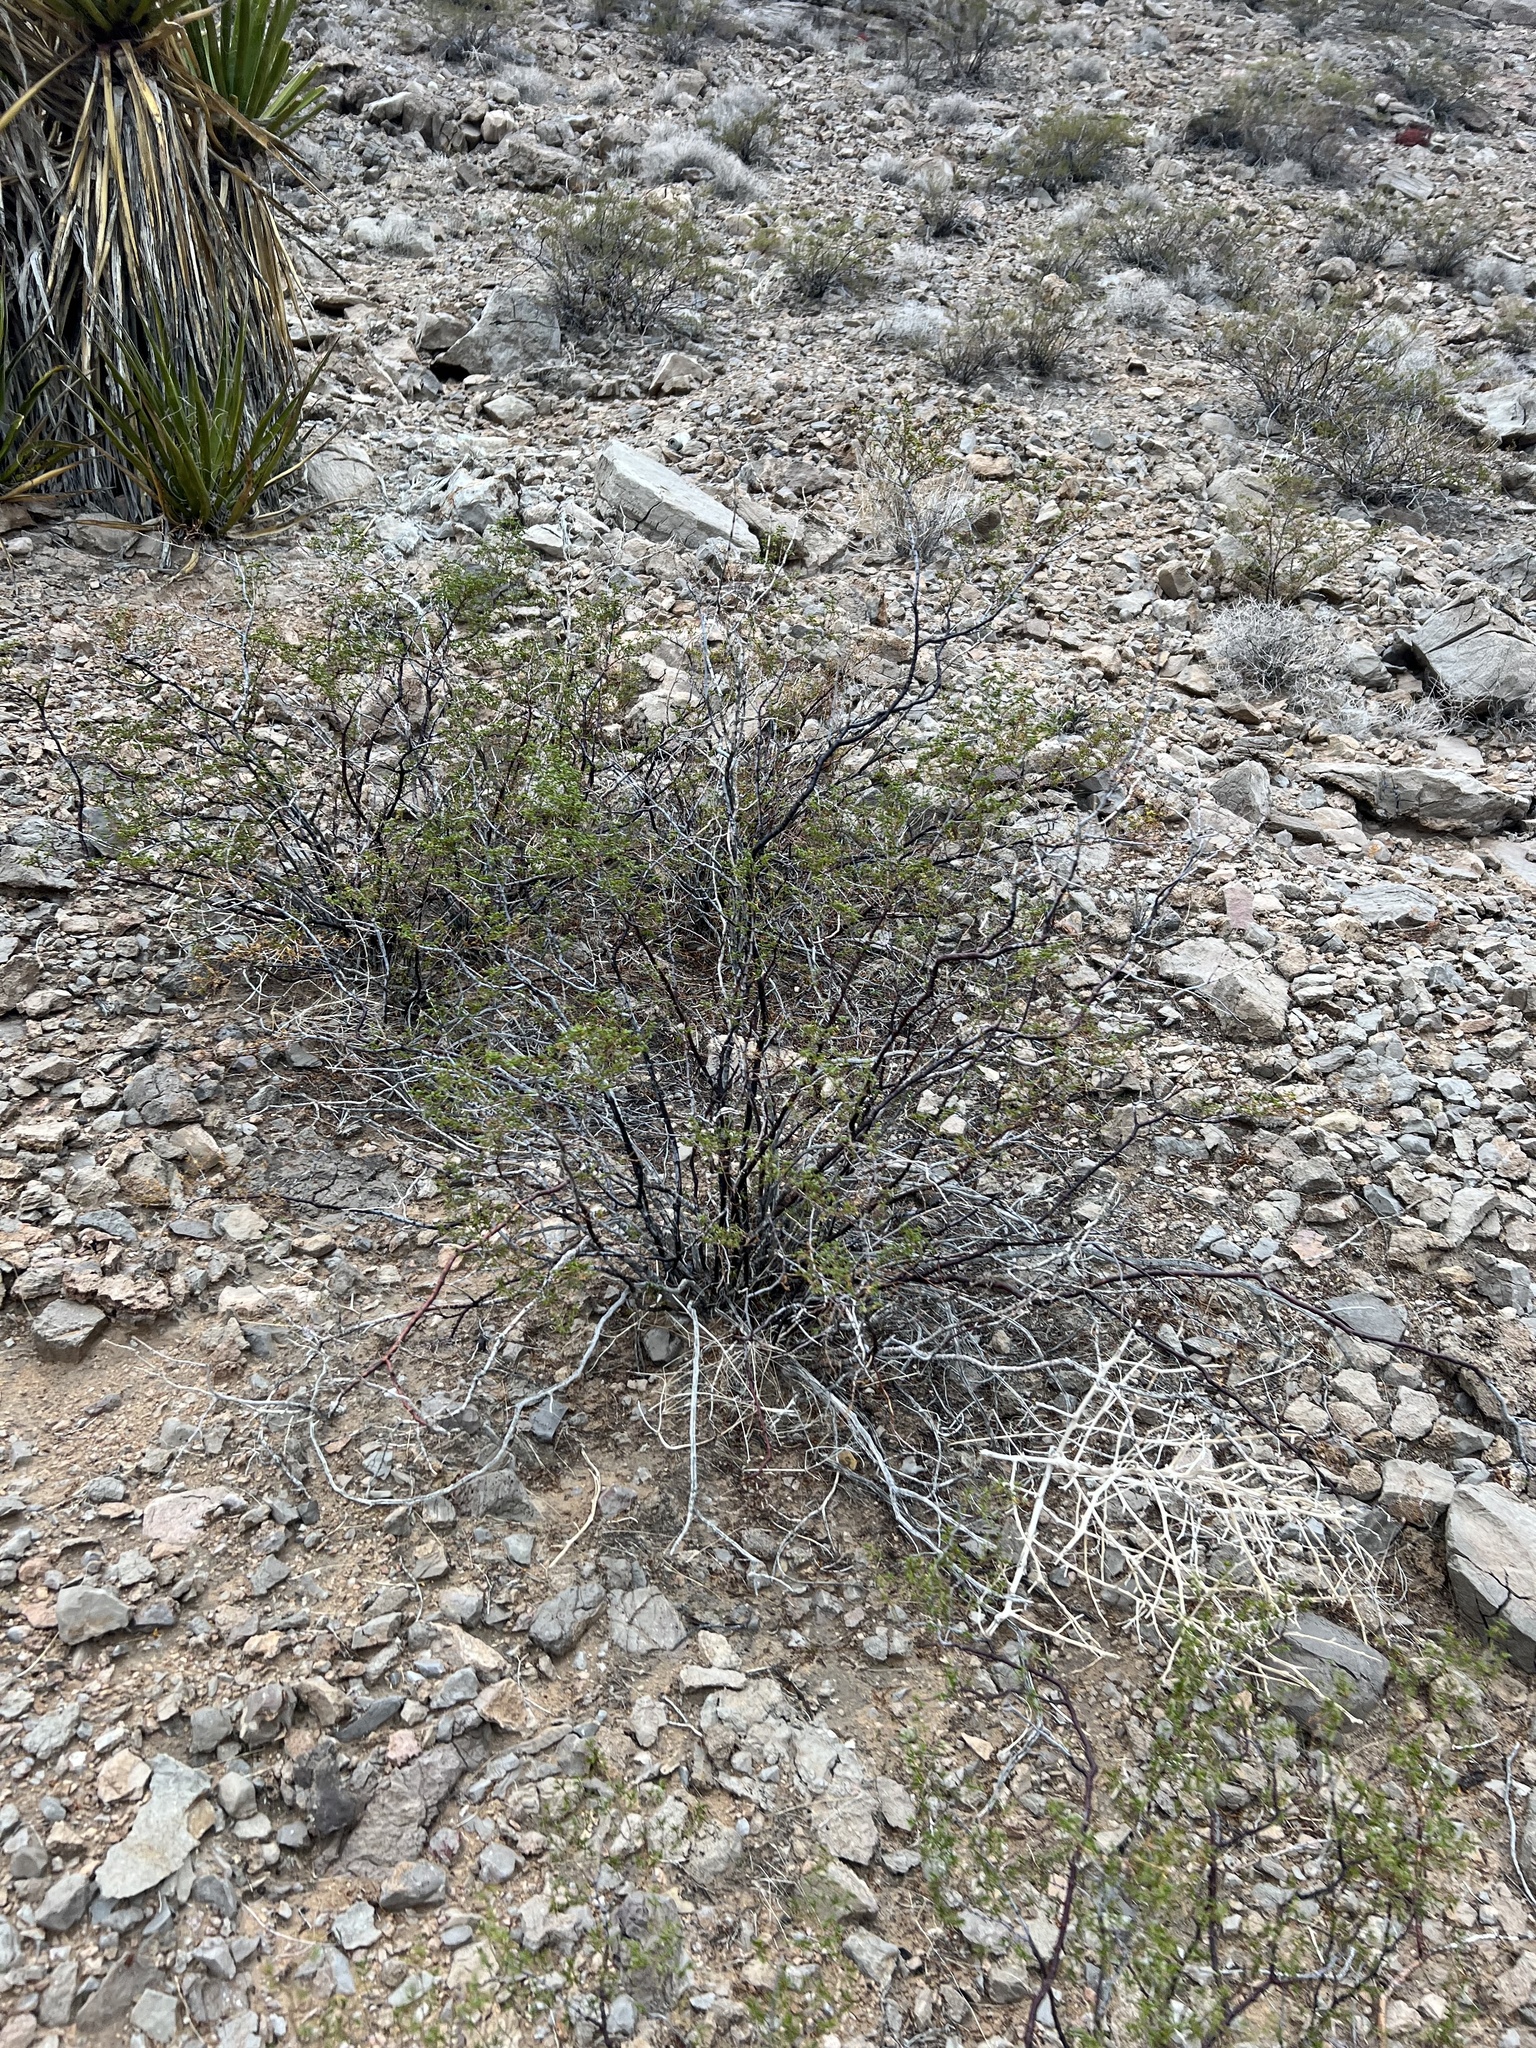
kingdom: Plantae
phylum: Tracheophyta
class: Magnoliopsida
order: Zygophyllales
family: Zygophyllaceae
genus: Larrea
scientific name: Larrea tridentata
